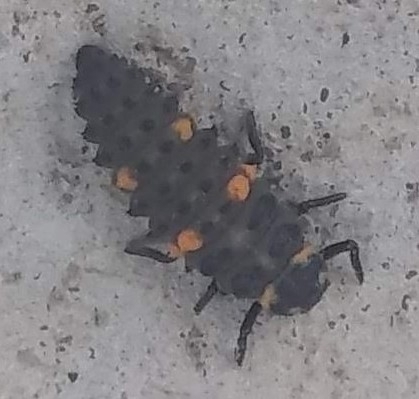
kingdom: Animalia
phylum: Arthropoda
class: Insecta
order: Coleoptera
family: Coccinellidae
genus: Coccinella
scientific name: Coccinella septempunctata
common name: Sevenspotted lady beetle
